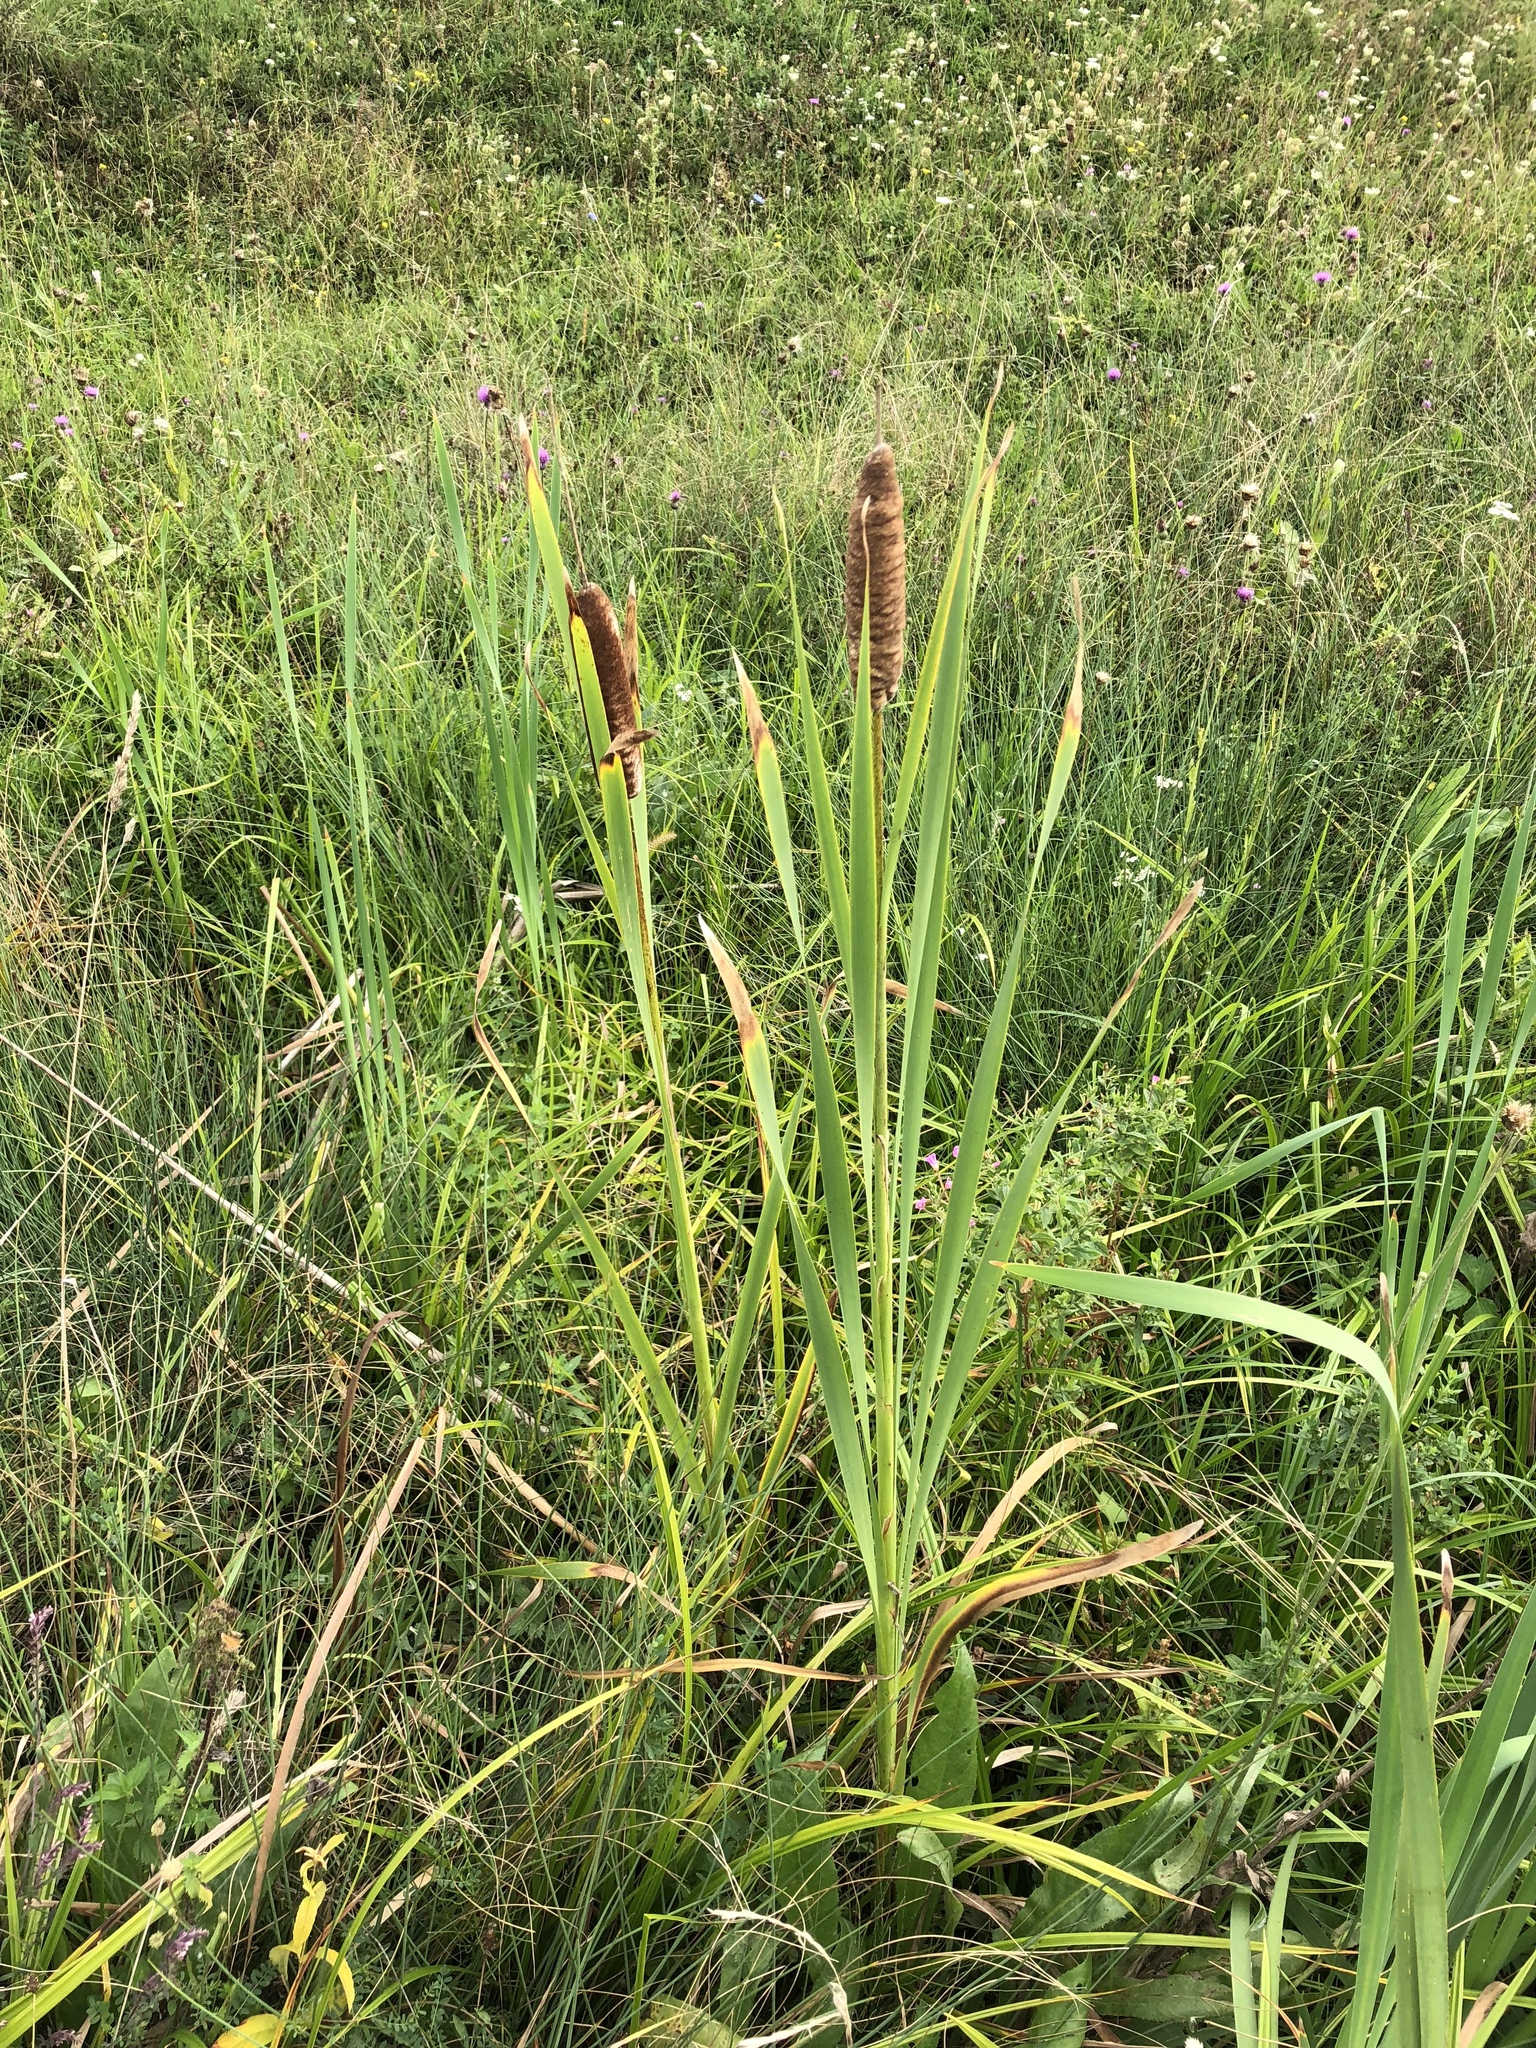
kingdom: Plantae
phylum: Tracheophyta
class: Liliopsida
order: Poales
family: Typhaceae
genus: Typha
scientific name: Typha latifolia
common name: Broadleaf cattail
